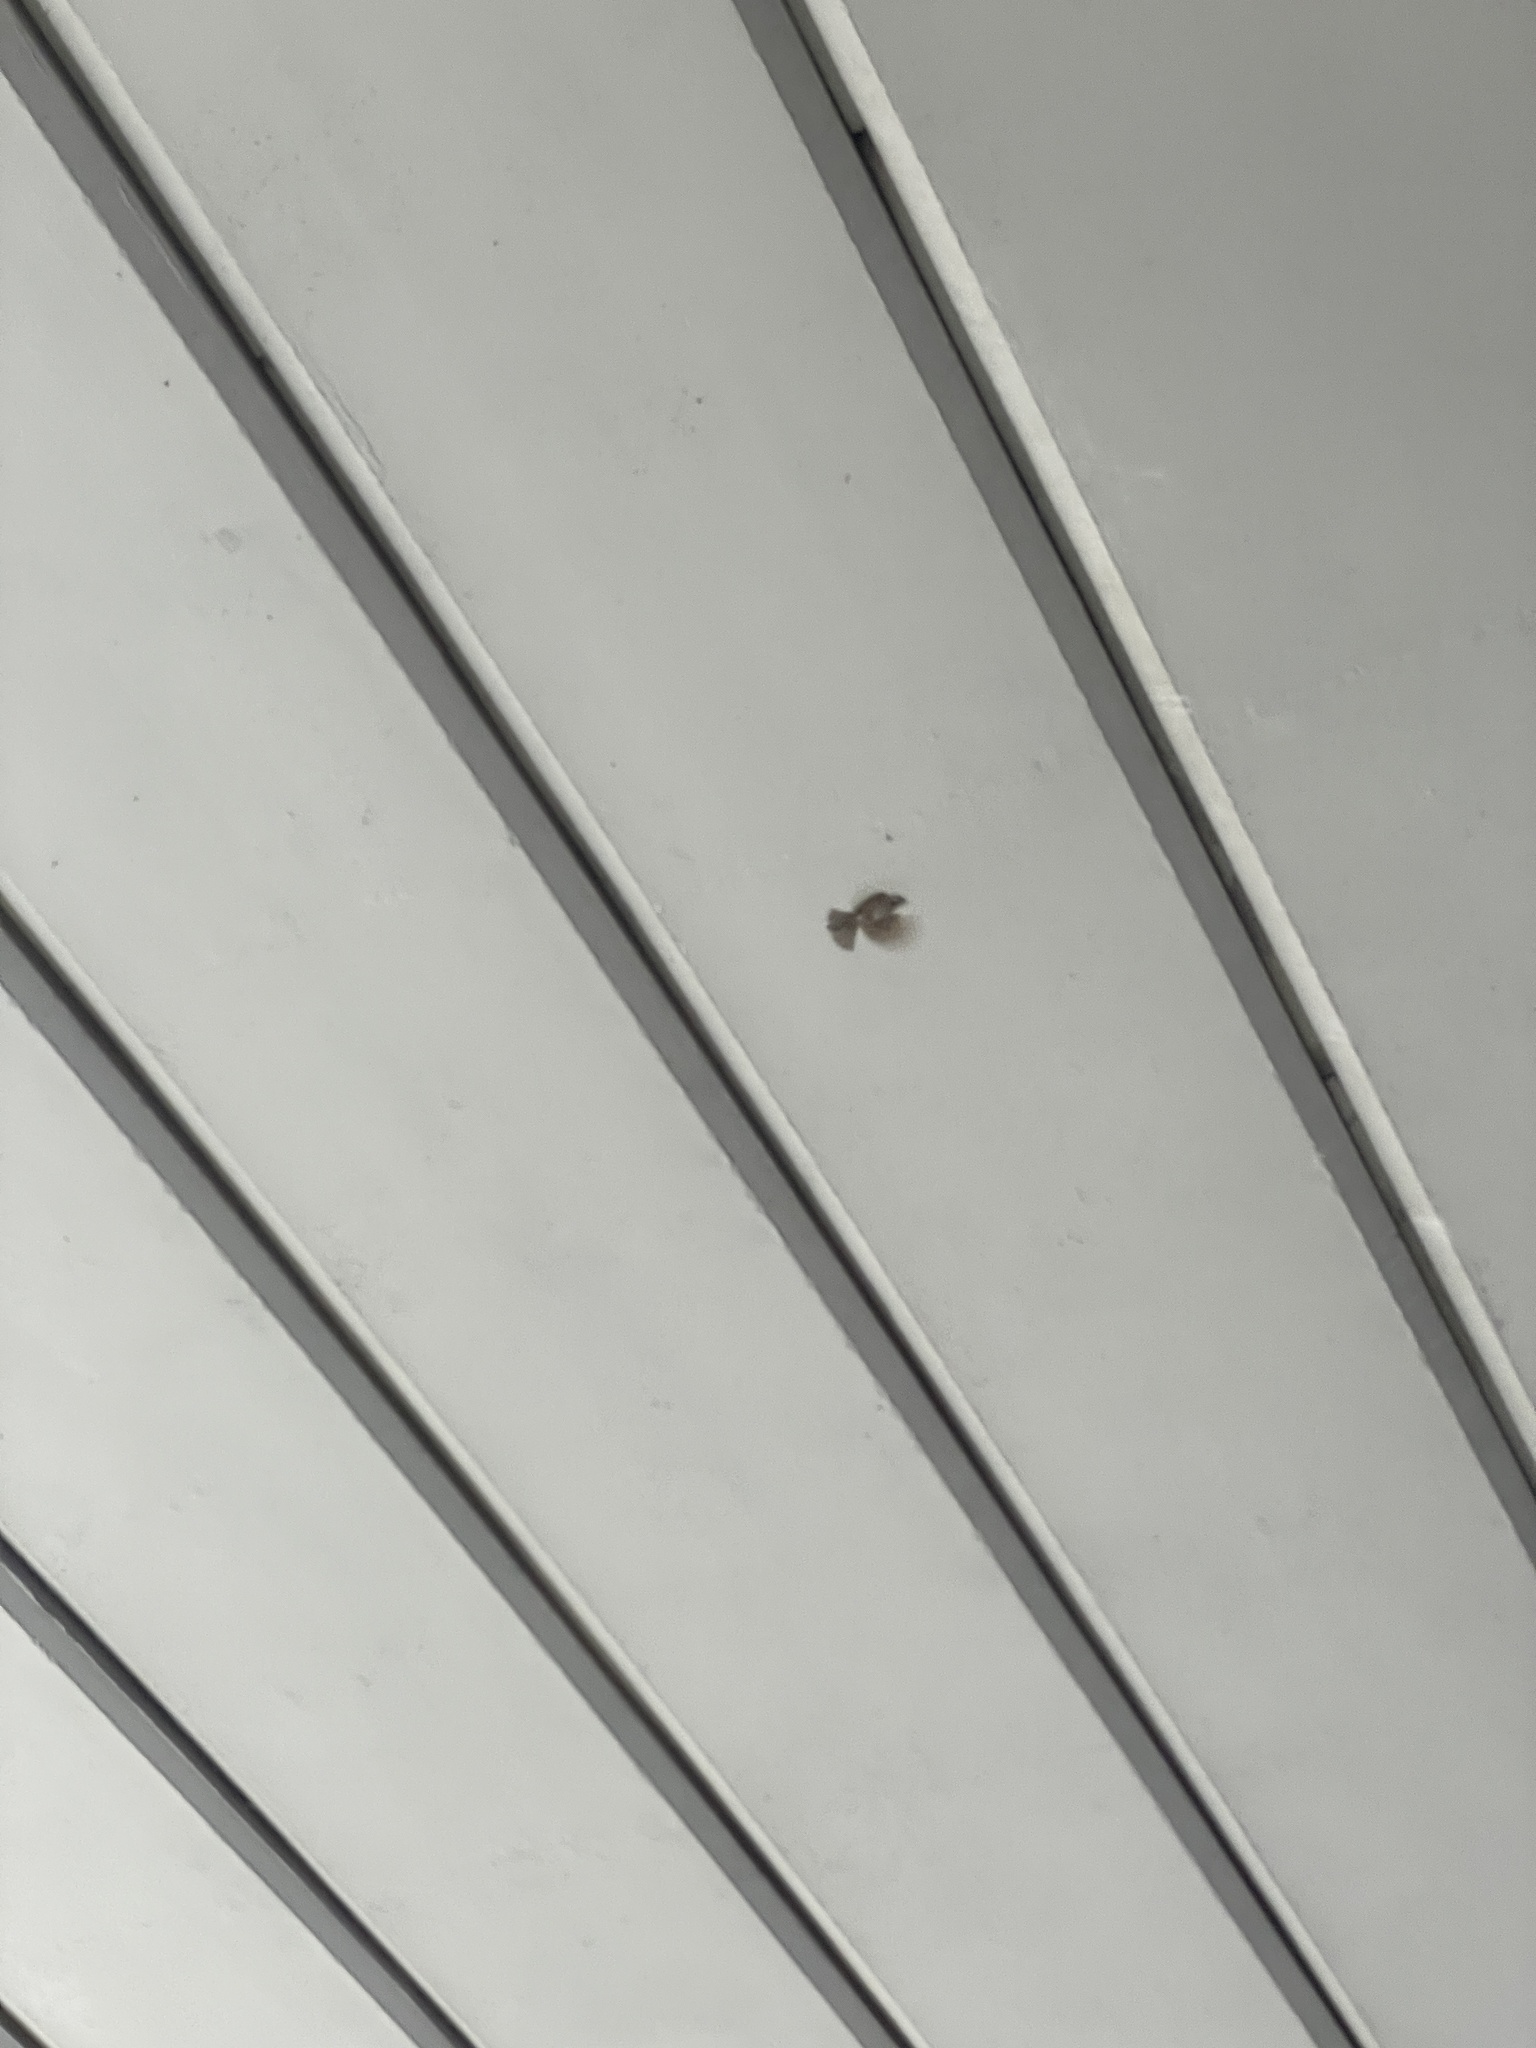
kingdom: Animalia
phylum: Chordata
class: Aves
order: Passeriformes
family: Passeridae
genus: Passer
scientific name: Passer montanus
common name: Eurasian tree sparrow
